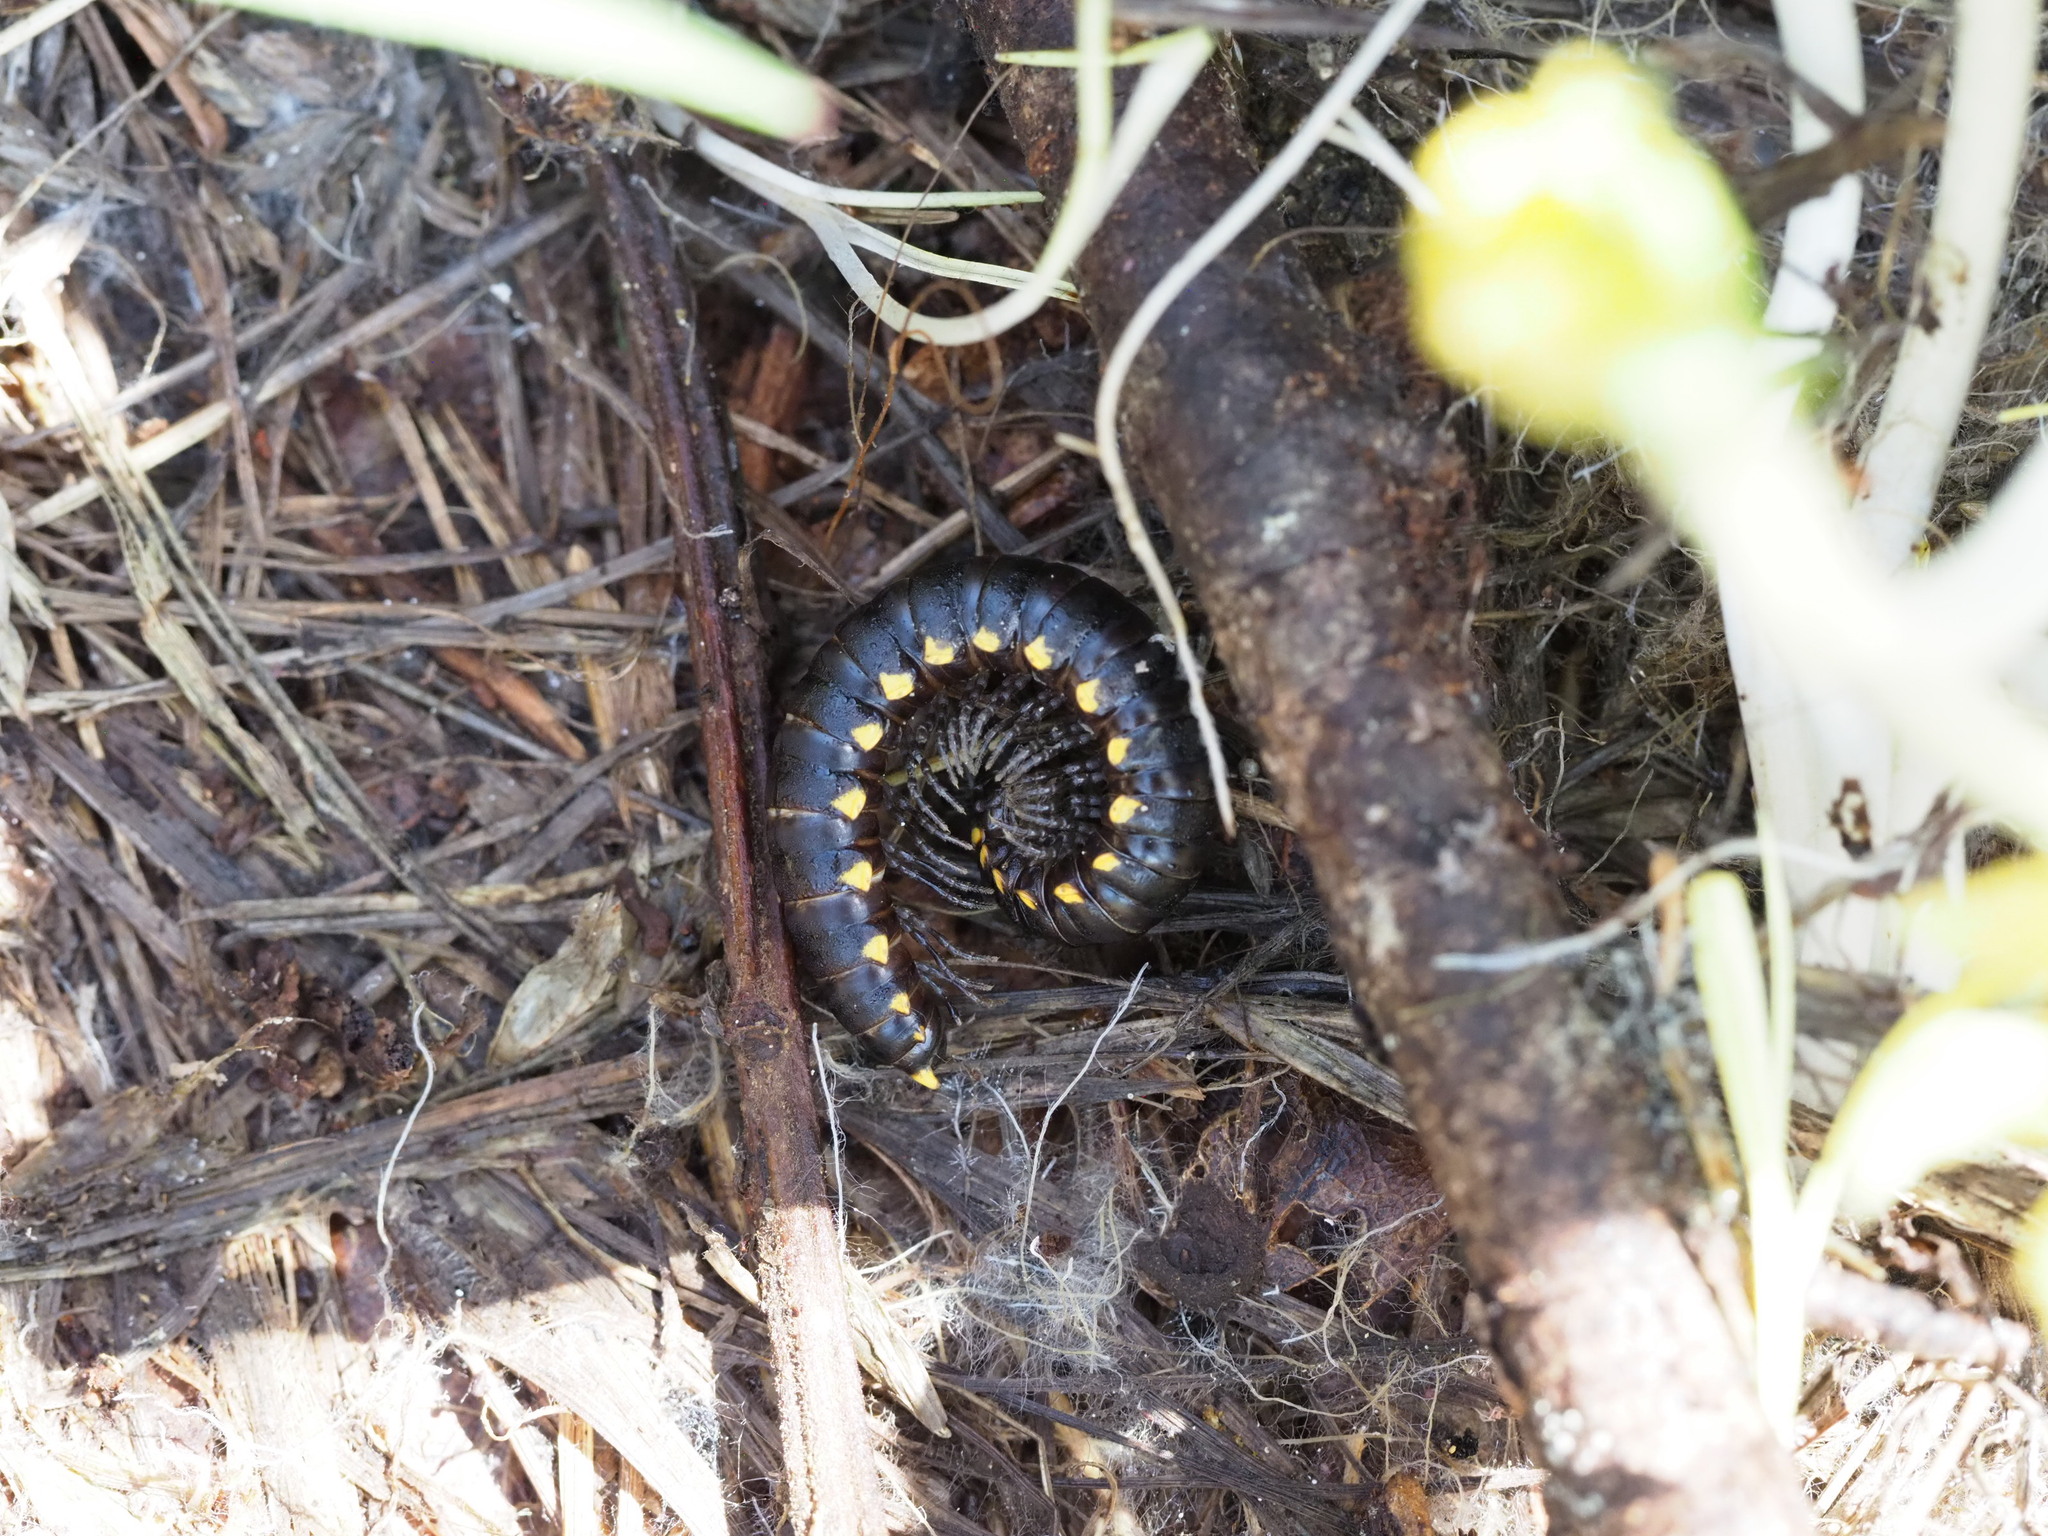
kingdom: Animalia
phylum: Arthropoda
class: Diplopoda
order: Polydesmida
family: Xystodesmidae
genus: Harpaphe
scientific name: Harpaphe haydeniana
